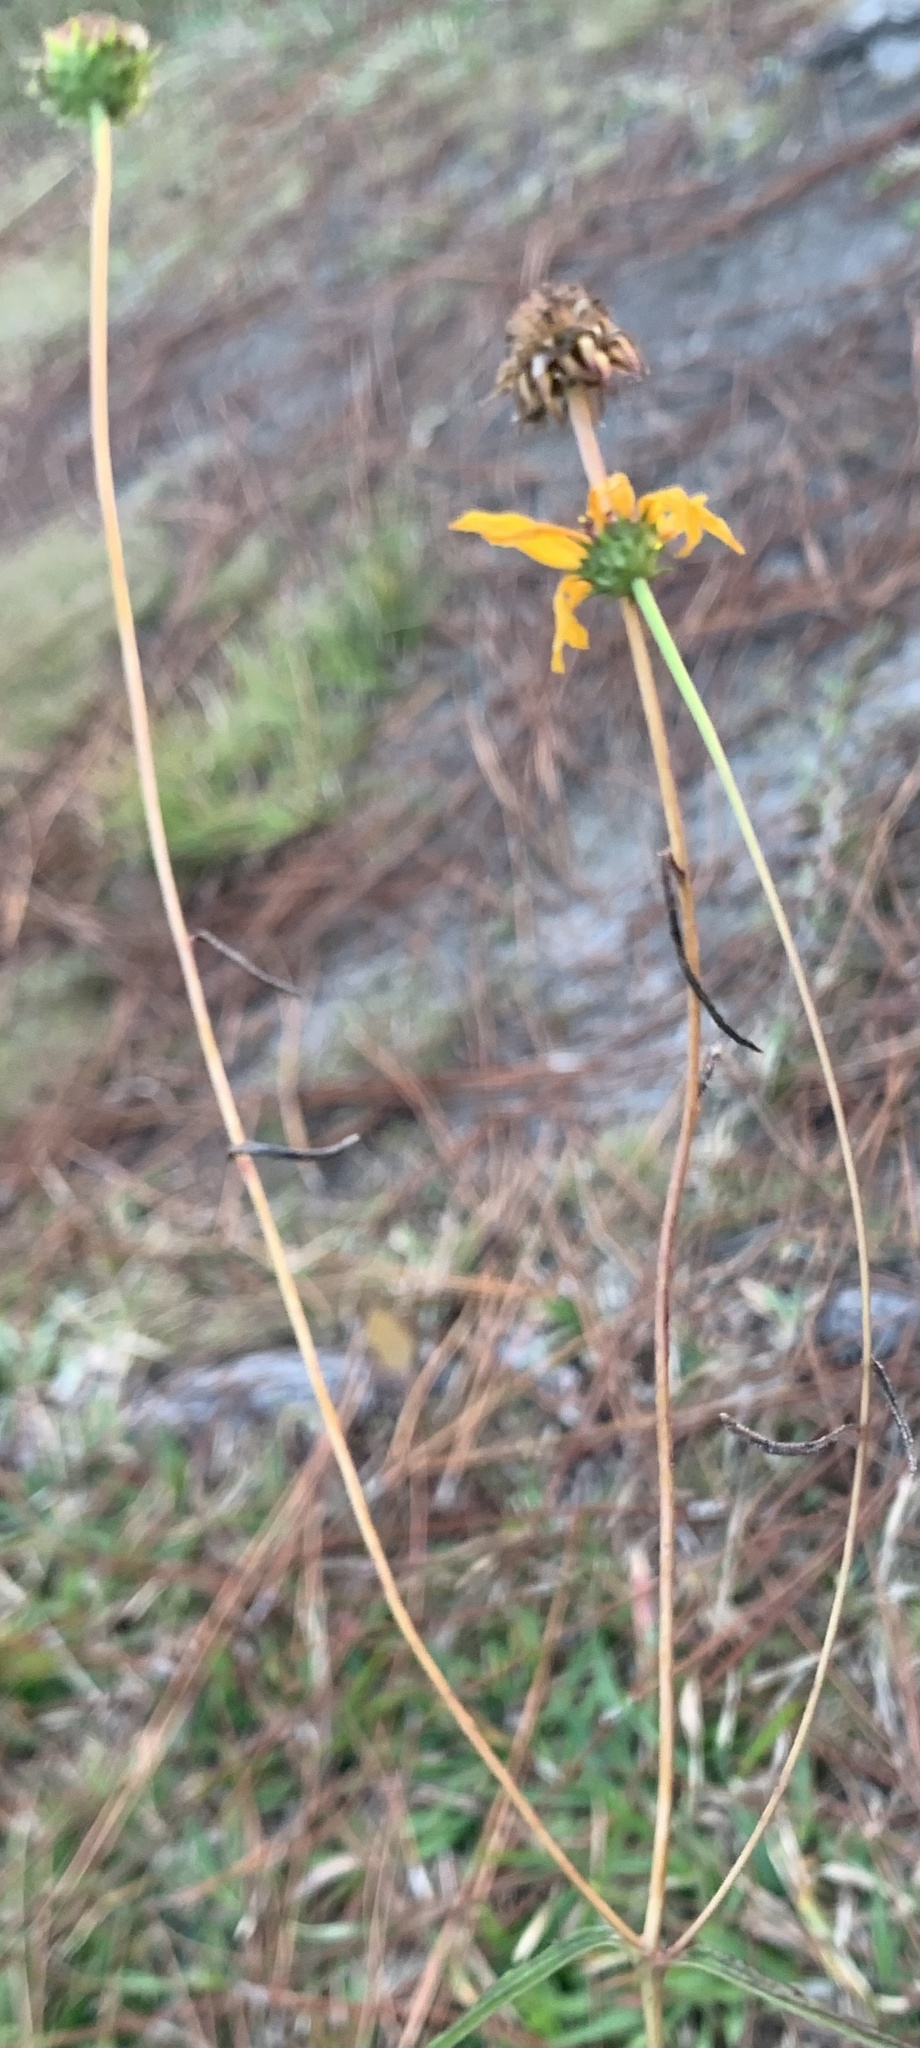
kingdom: Plantae
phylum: Tracheophyta
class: Magnoliopsida
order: Asterales
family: Asteraceae
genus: Helianthus
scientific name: Helianthus angustifolius
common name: Swamp sunflower
